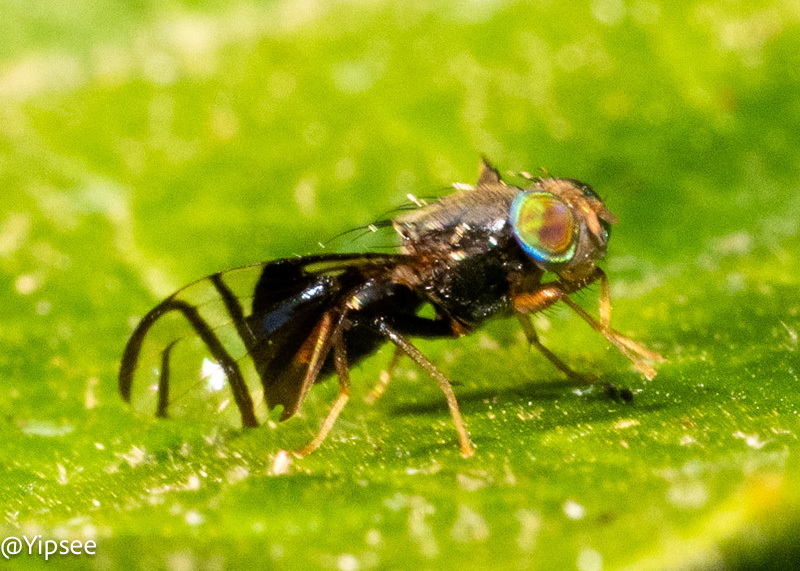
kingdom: Animalia
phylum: Arthropoda
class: Insecta
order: Diptera
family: Tephritidae
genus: Philophylla
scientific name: Philophylla fossata
